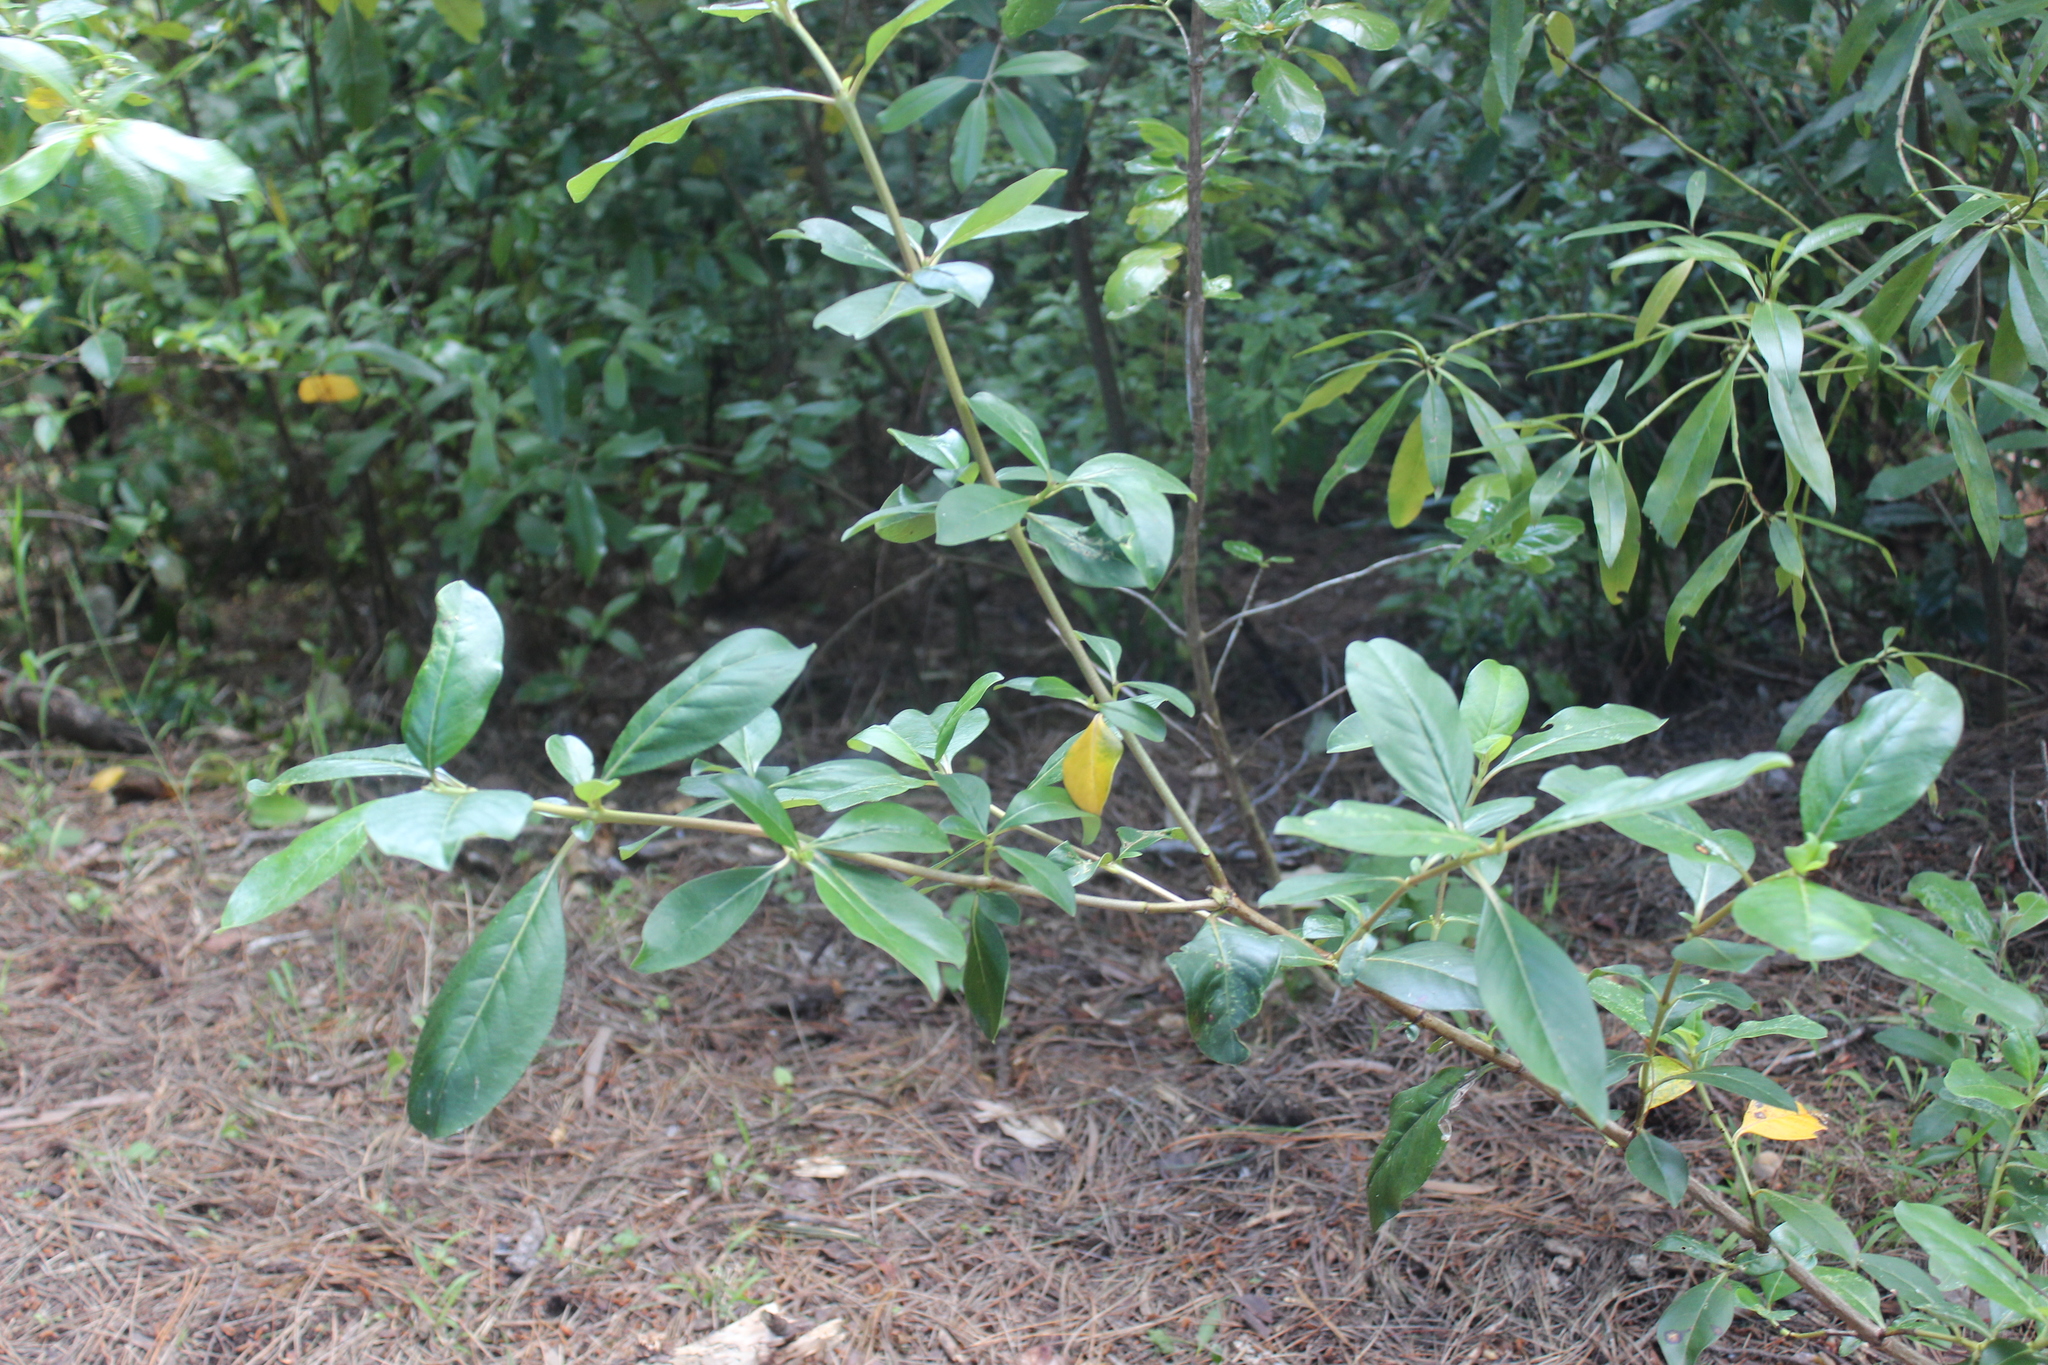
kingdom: Plantae
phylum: Tracheophyta
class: Magnoliopsida
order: Gentianales
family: Rubiaceae
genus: Coprosma
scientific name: Coprosma robusta
